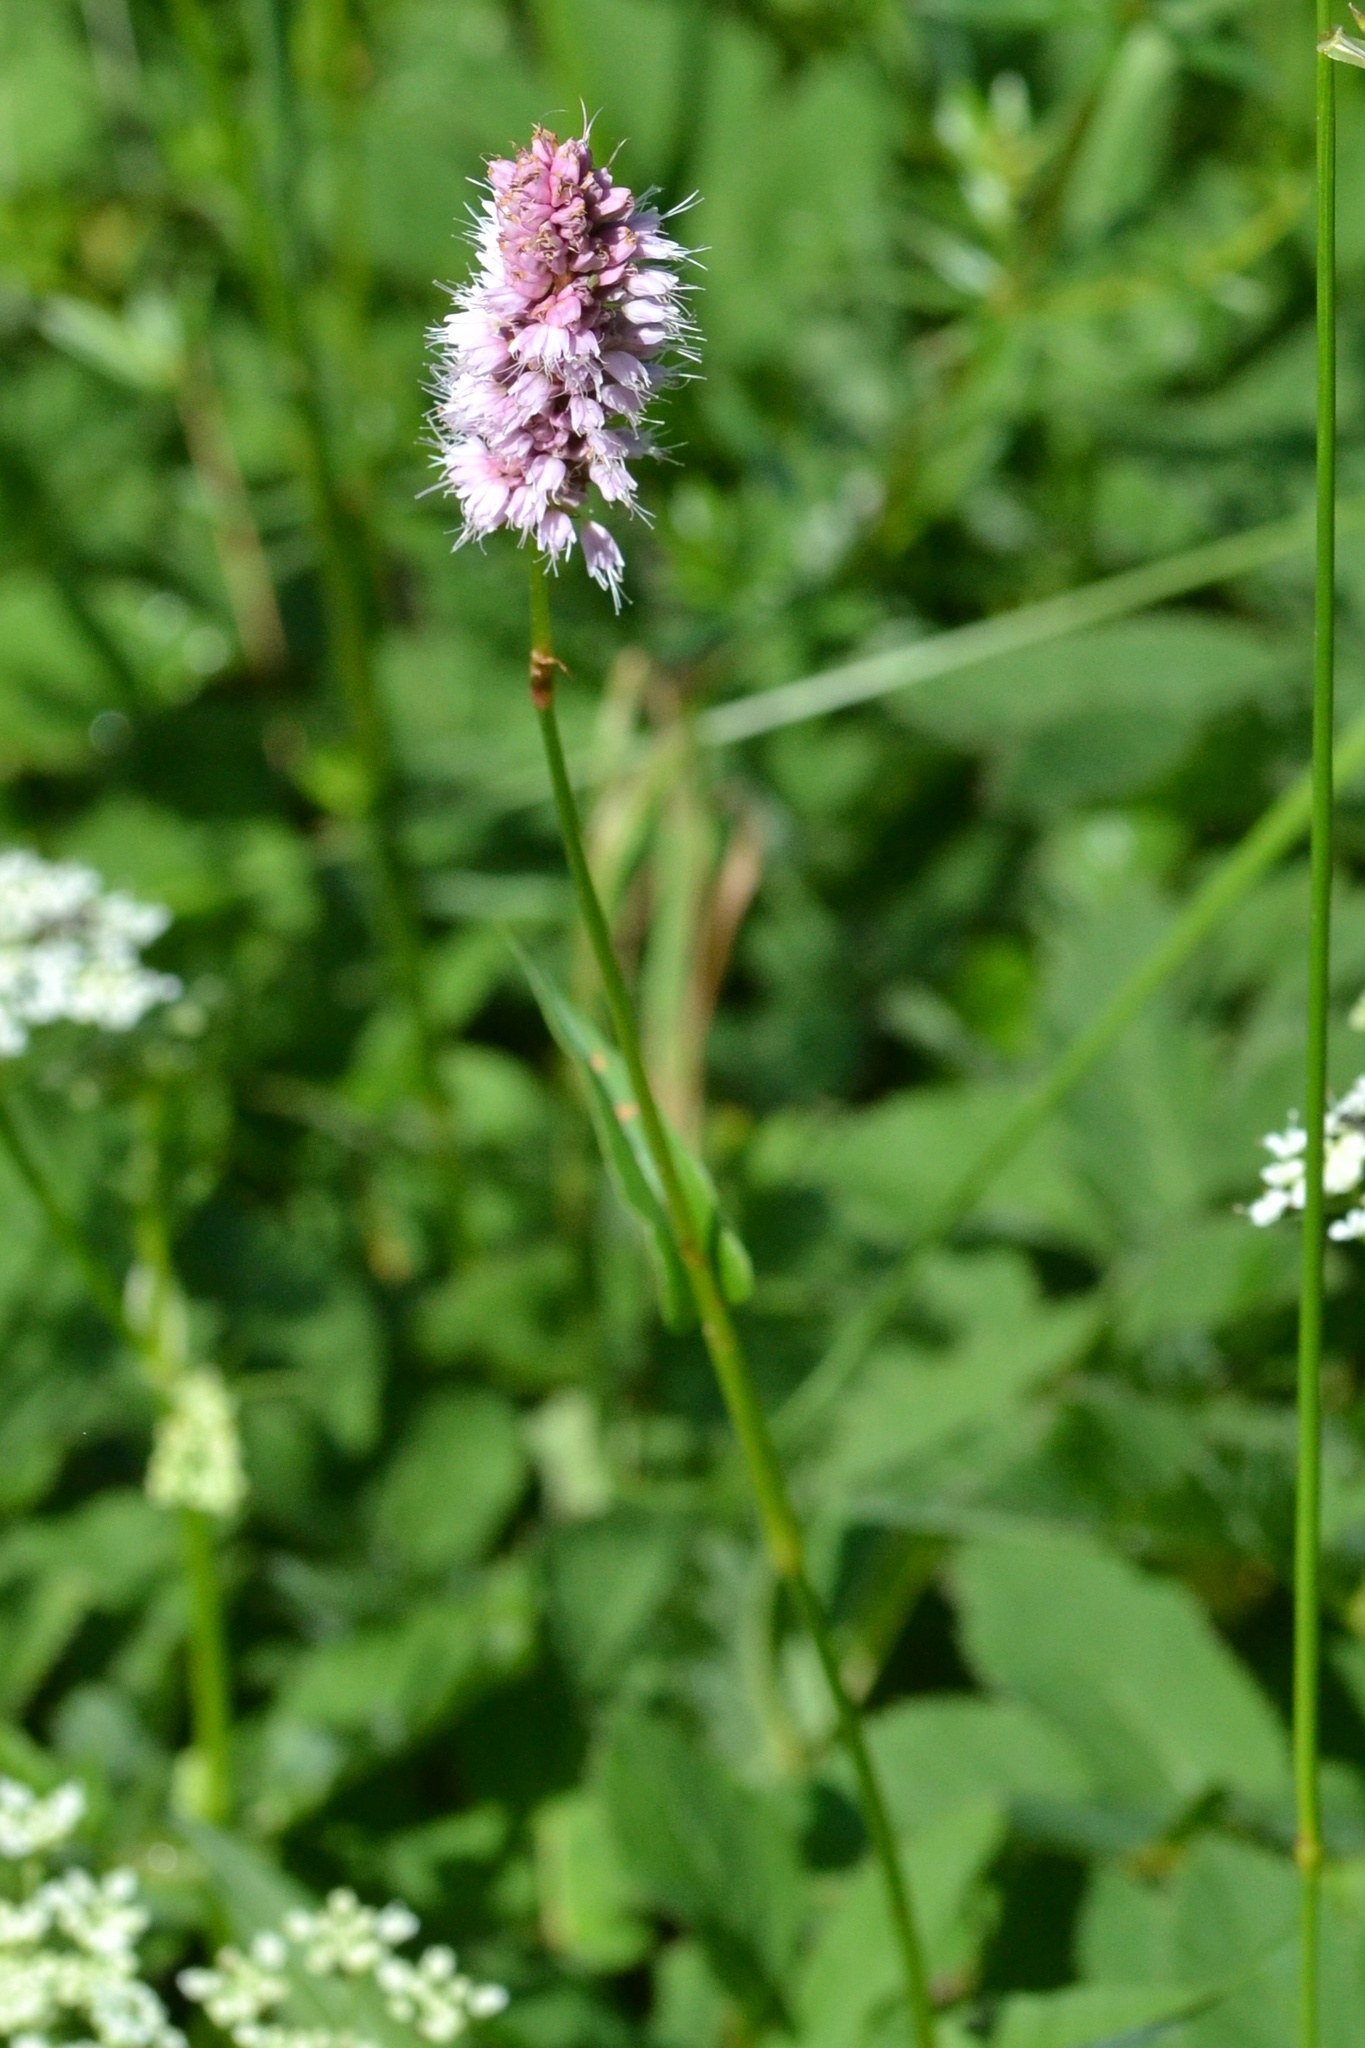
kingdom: Plantae
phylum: Tracheophyta
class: Magnoliopsida
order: Caryophyllales
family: Polygonaceae
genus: Bistorta
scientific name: Bistorta officinalis
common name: Common bistort
